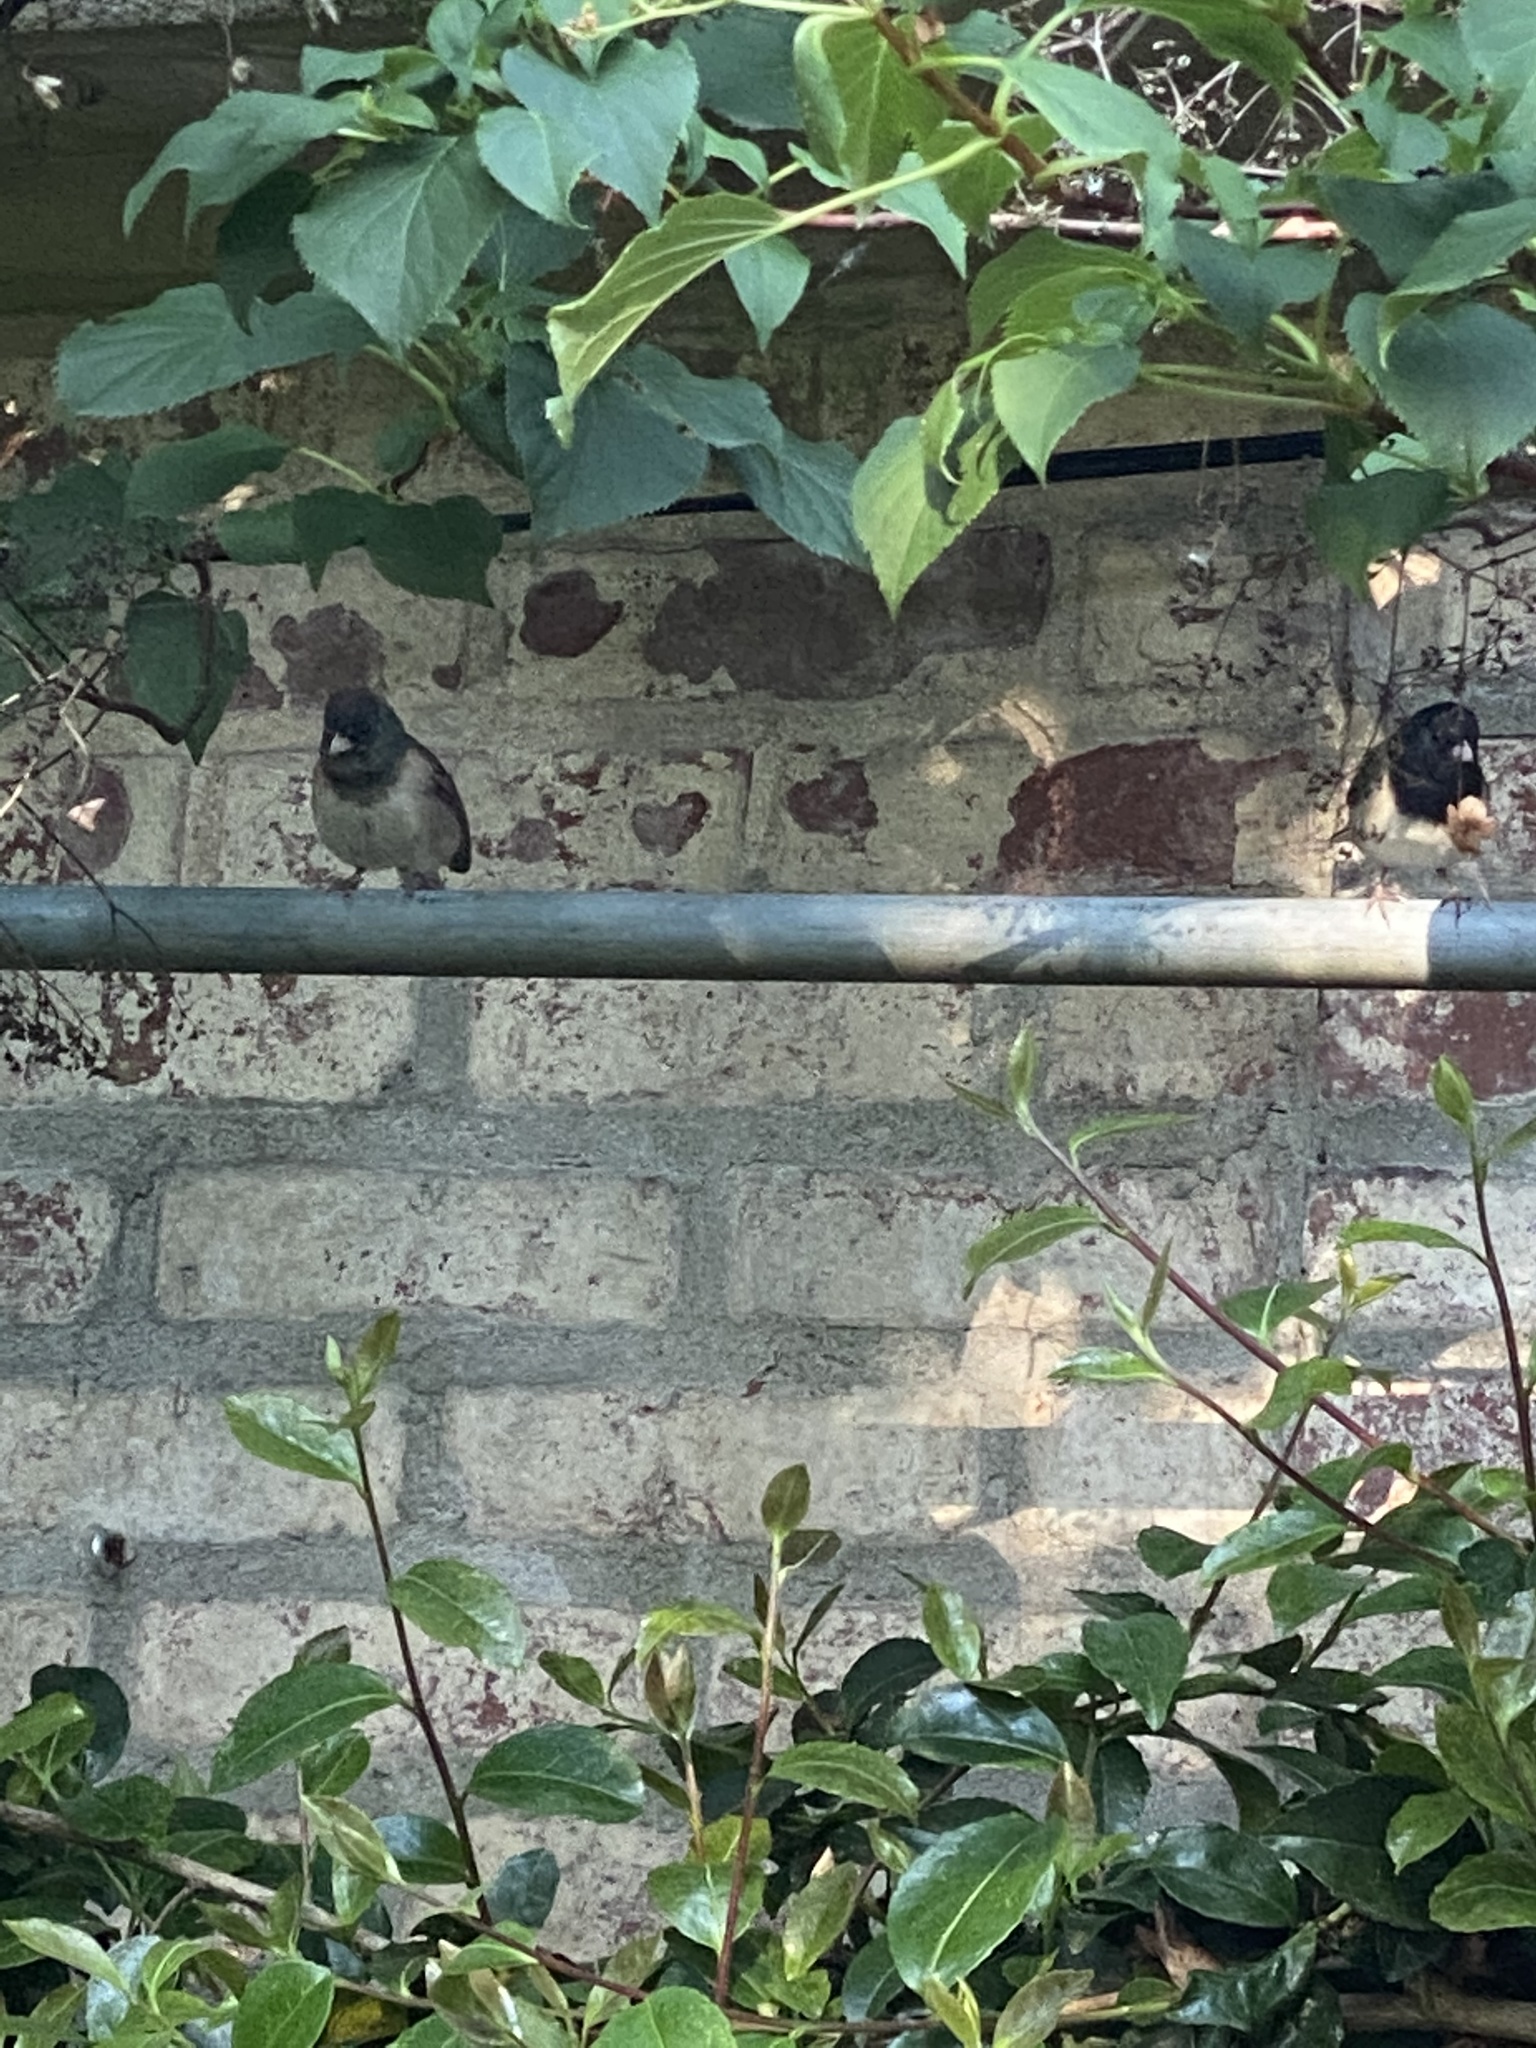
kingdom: Animalia
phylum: Chordata
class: Aves
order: Passeriformes
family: Passerellidae
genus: Junco
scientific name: Junco hyemalis
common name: Dark-eyed junco
